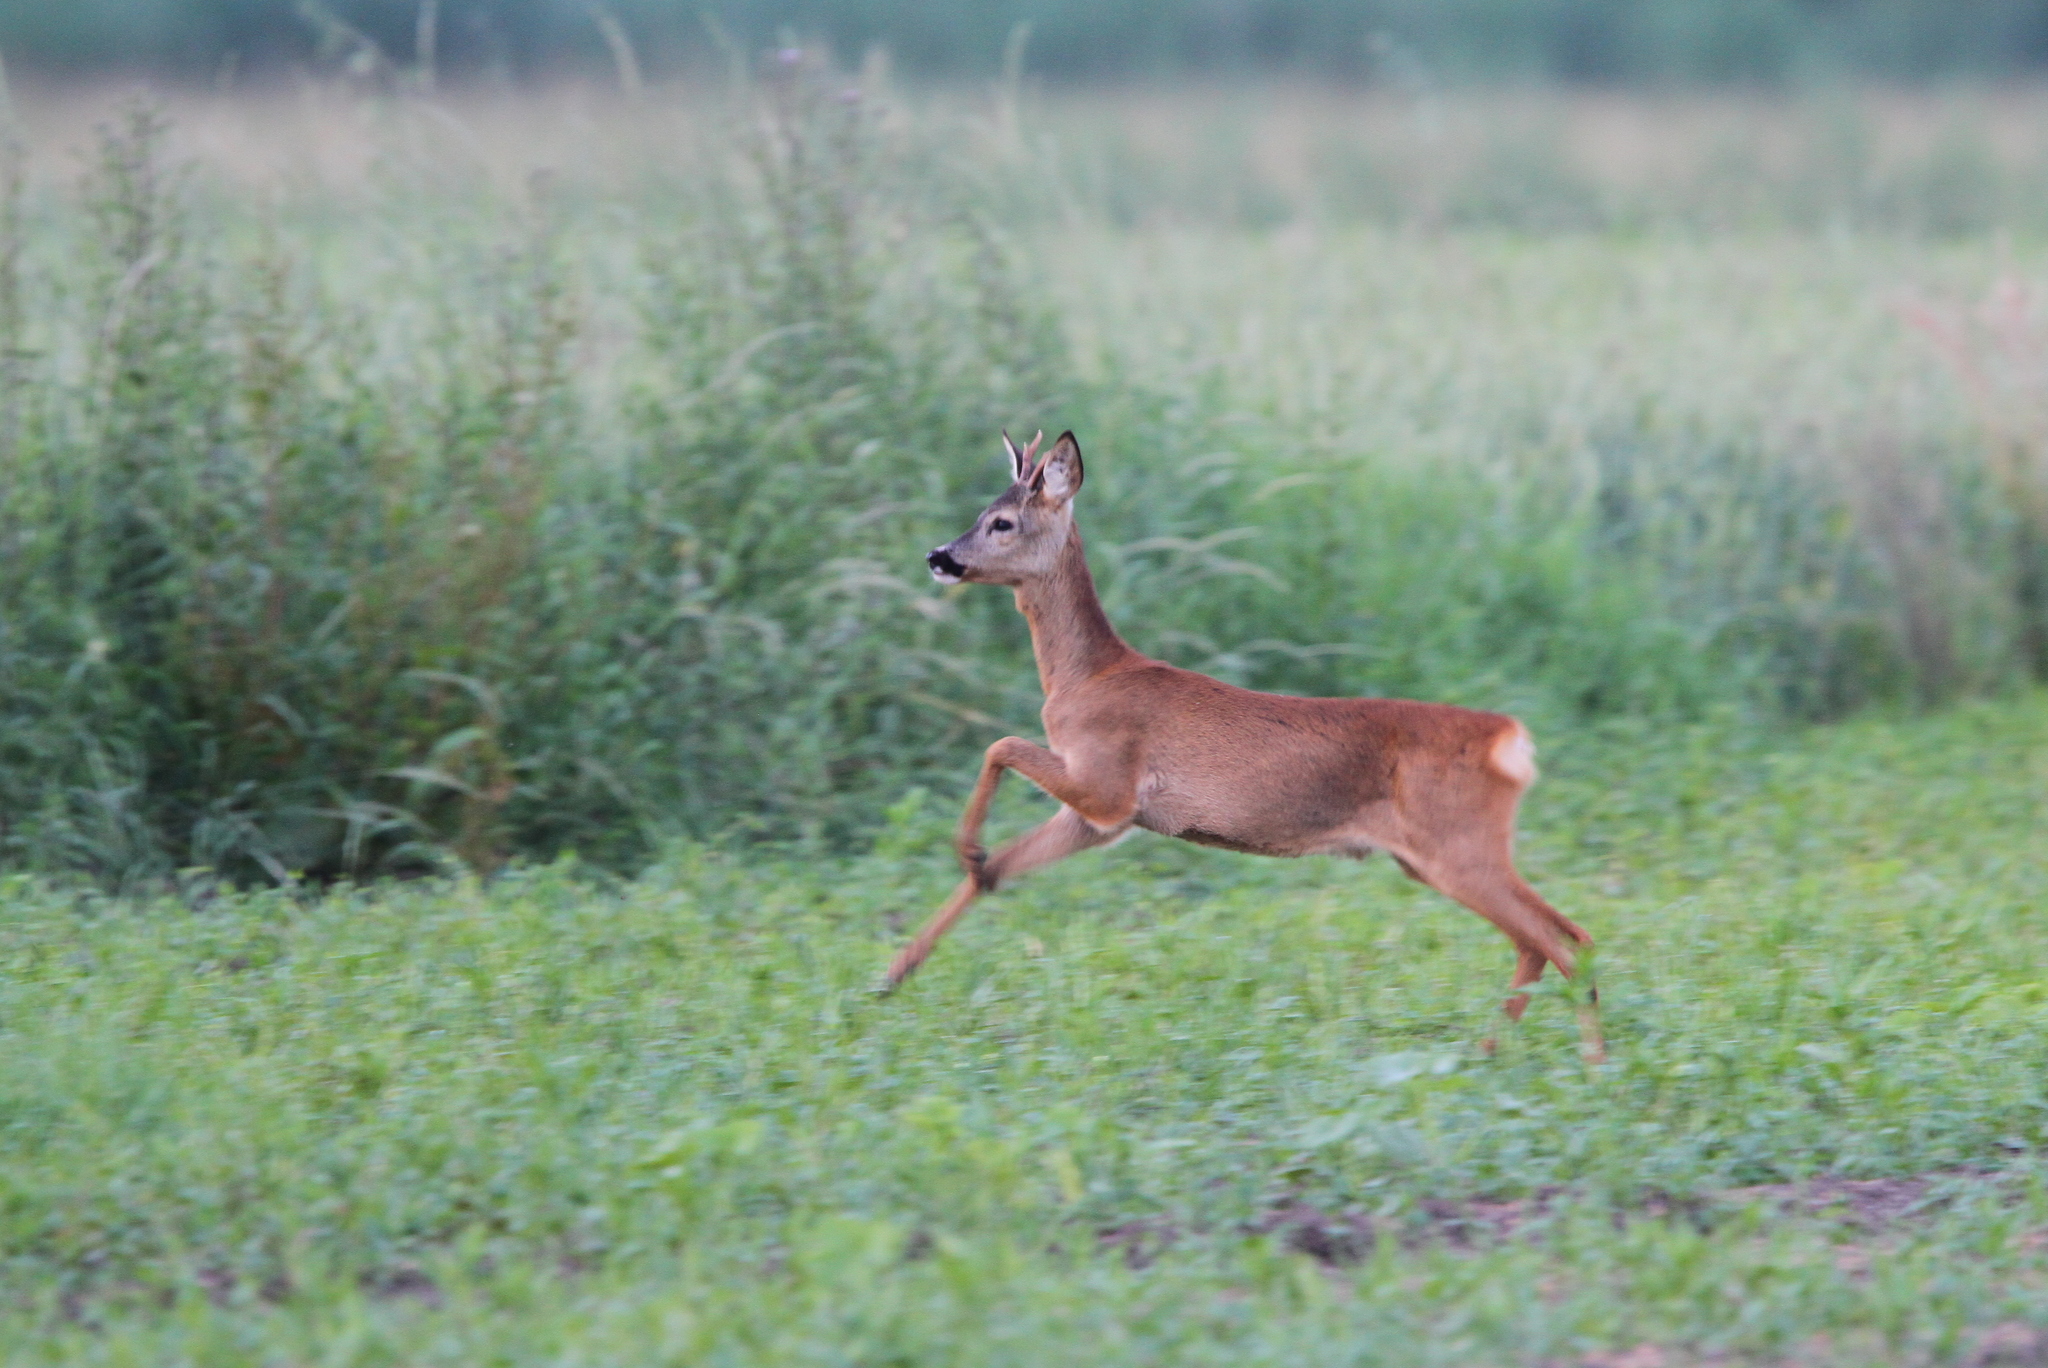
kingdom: Animalia
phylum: Chordata
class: Mammalia
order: Artiodactyla
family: Cervidae
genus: Capreolus
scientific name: Capreolus capreolus
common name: Western roe deer
